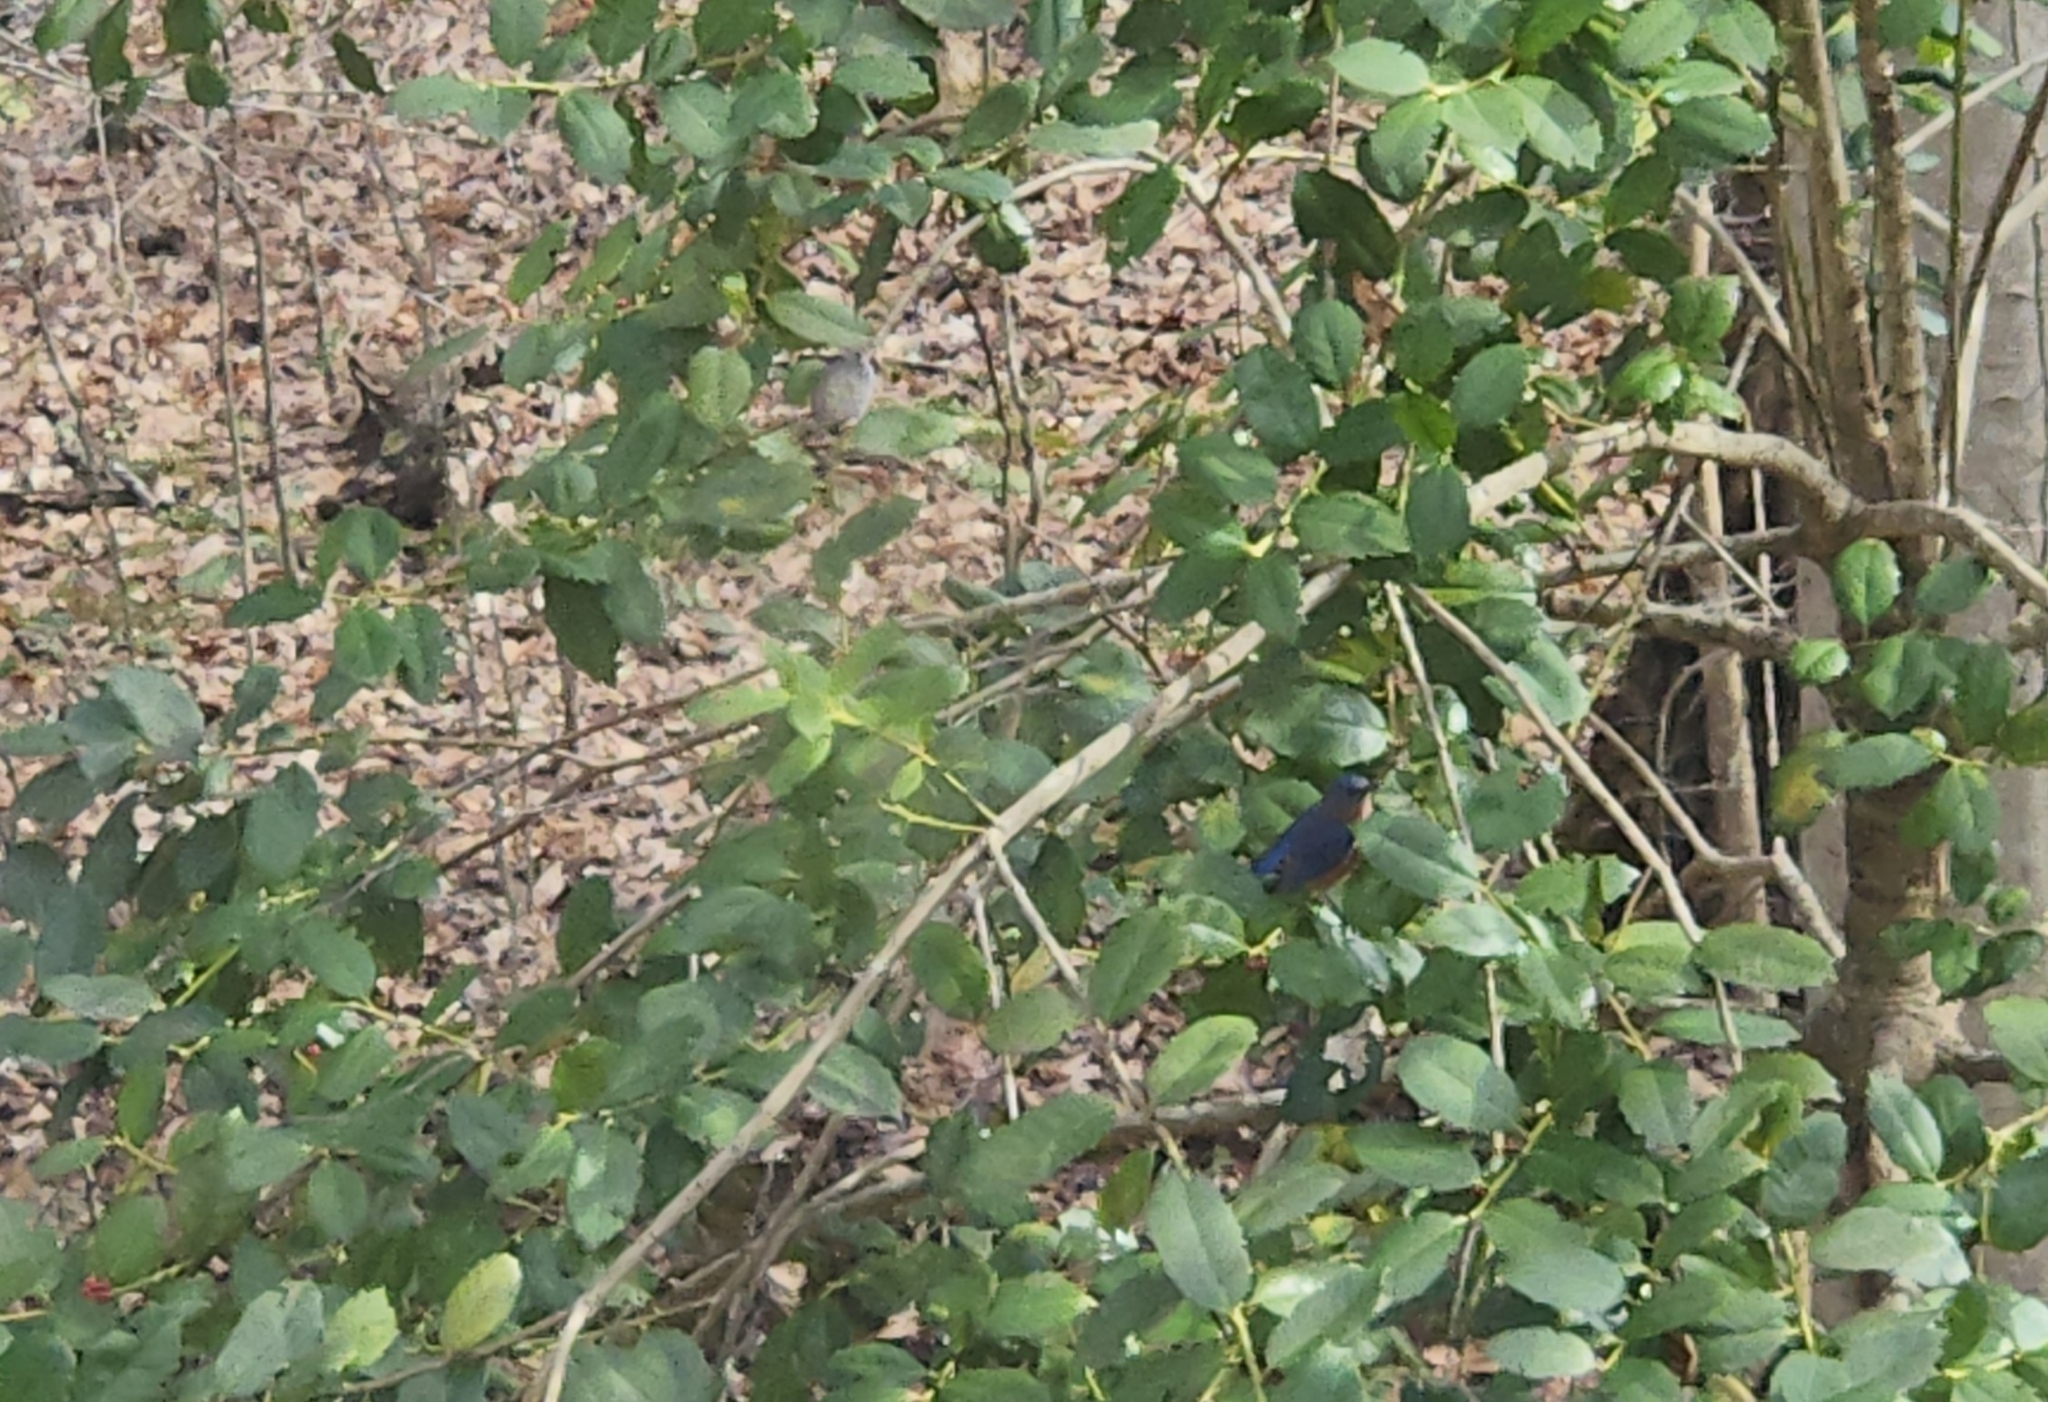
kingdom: Animalia
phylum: Chordata
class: Aves
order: Passeriformes
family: Turdidae
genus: Sialia
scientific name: Sialia sialis
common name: Eastern bluebird
